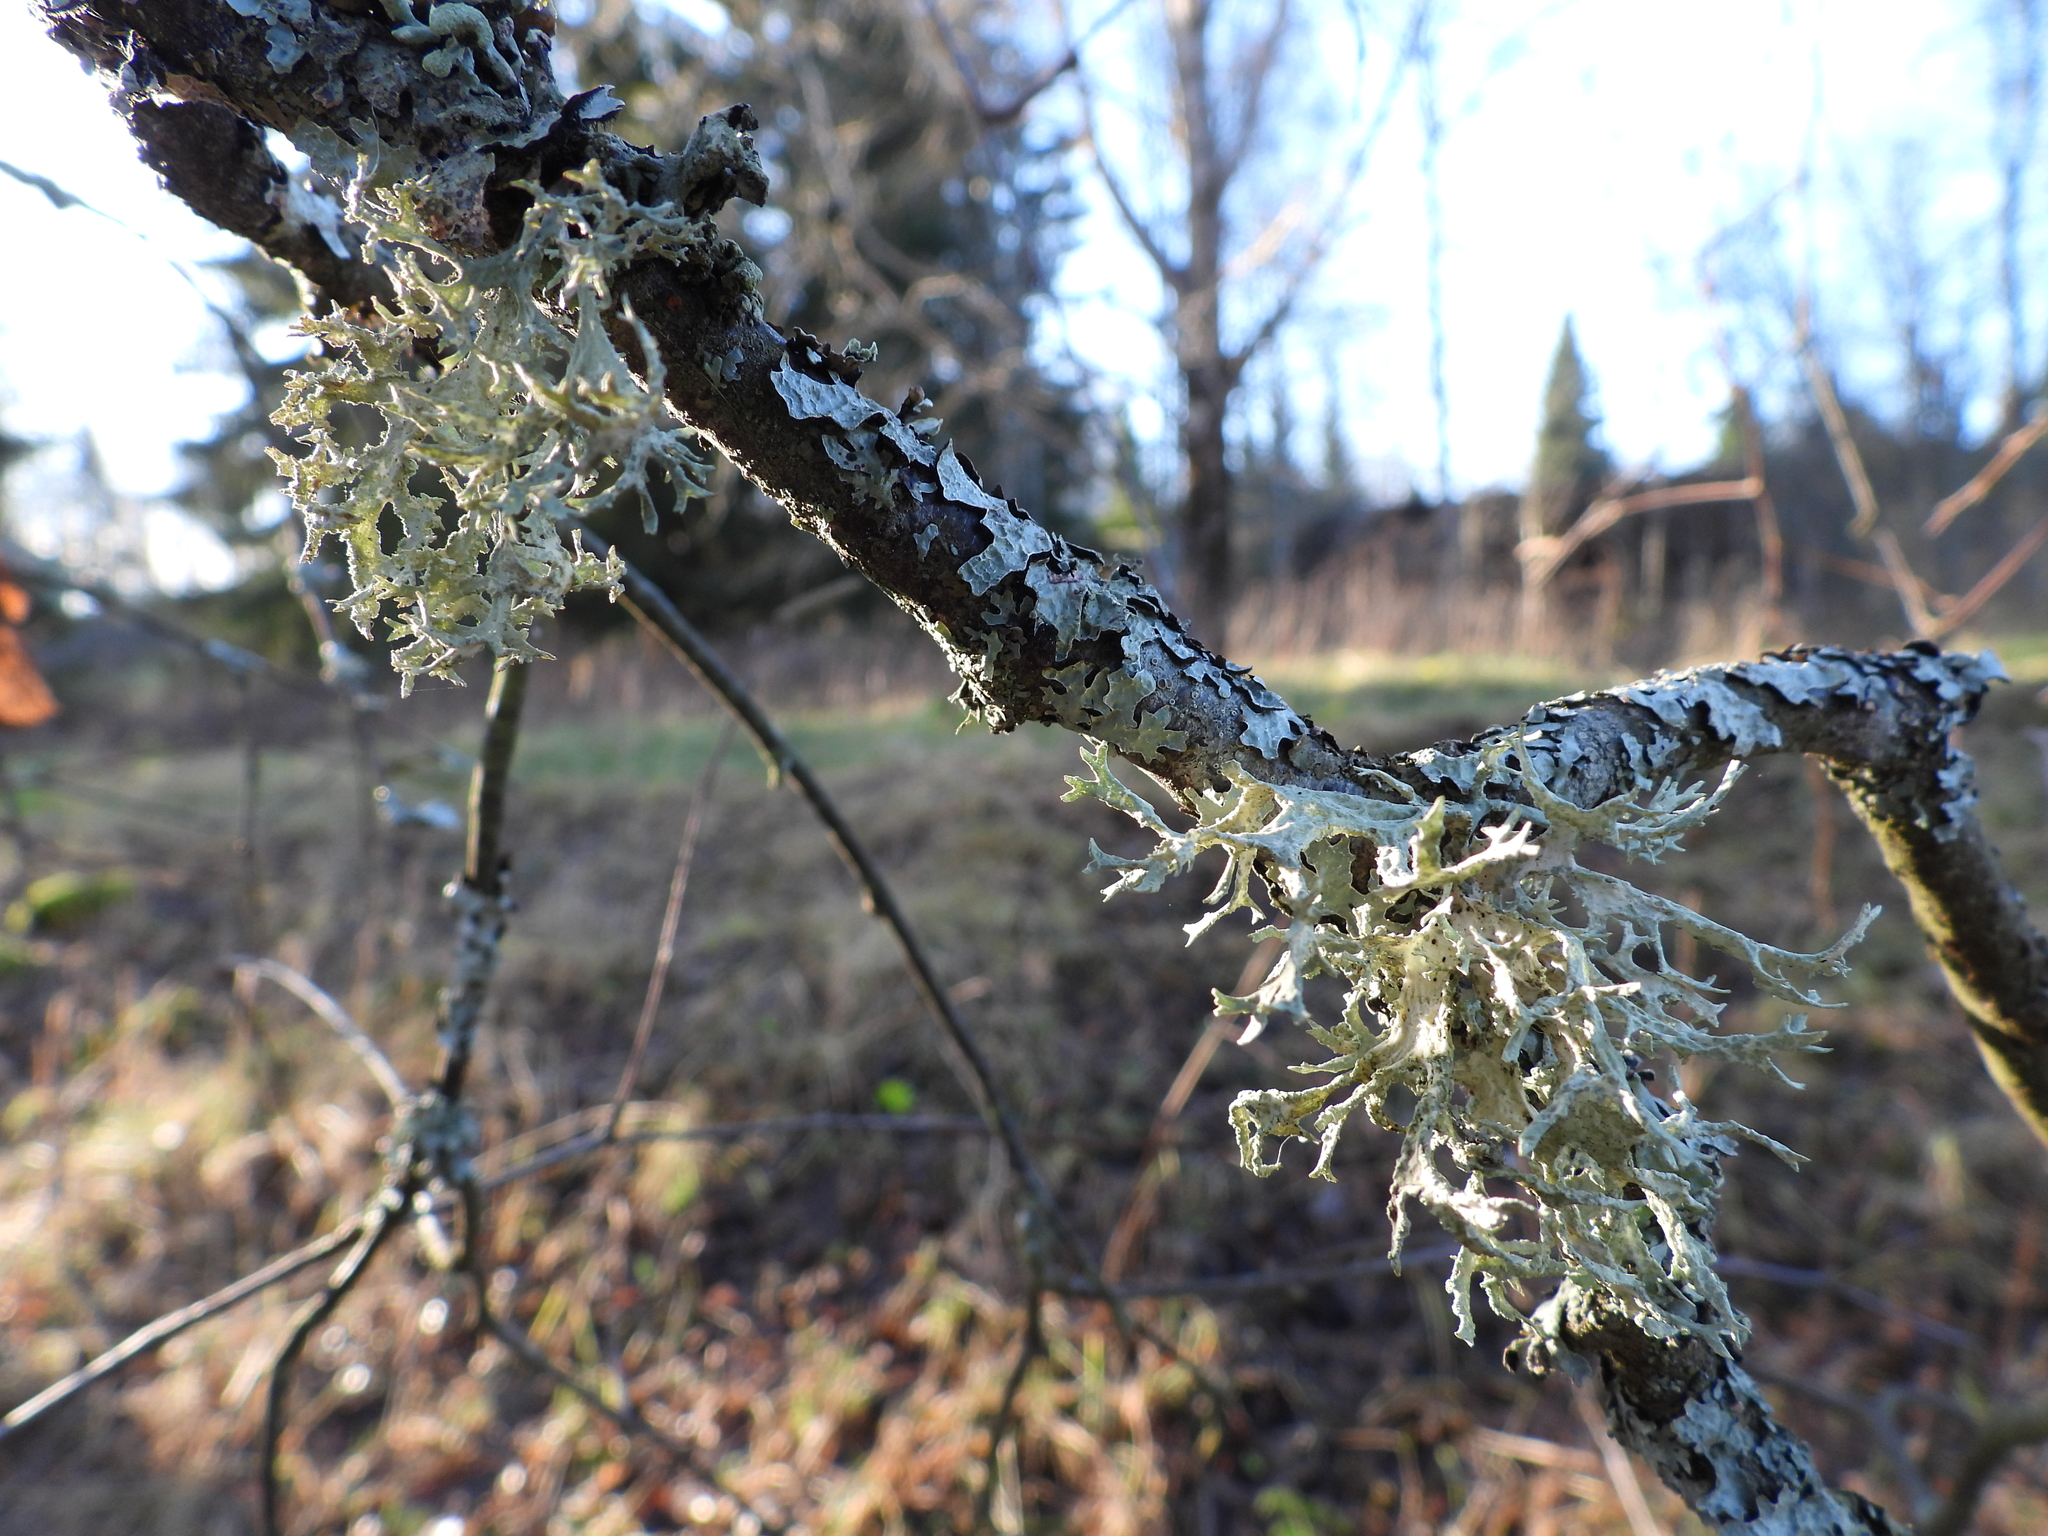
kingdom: Fungi
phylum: Ascomycota
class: Lecanoromycetes
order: Lecanorales
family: Parmeliaceae
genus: Evernia
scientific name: Evernia prunastri
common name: Oak moss
